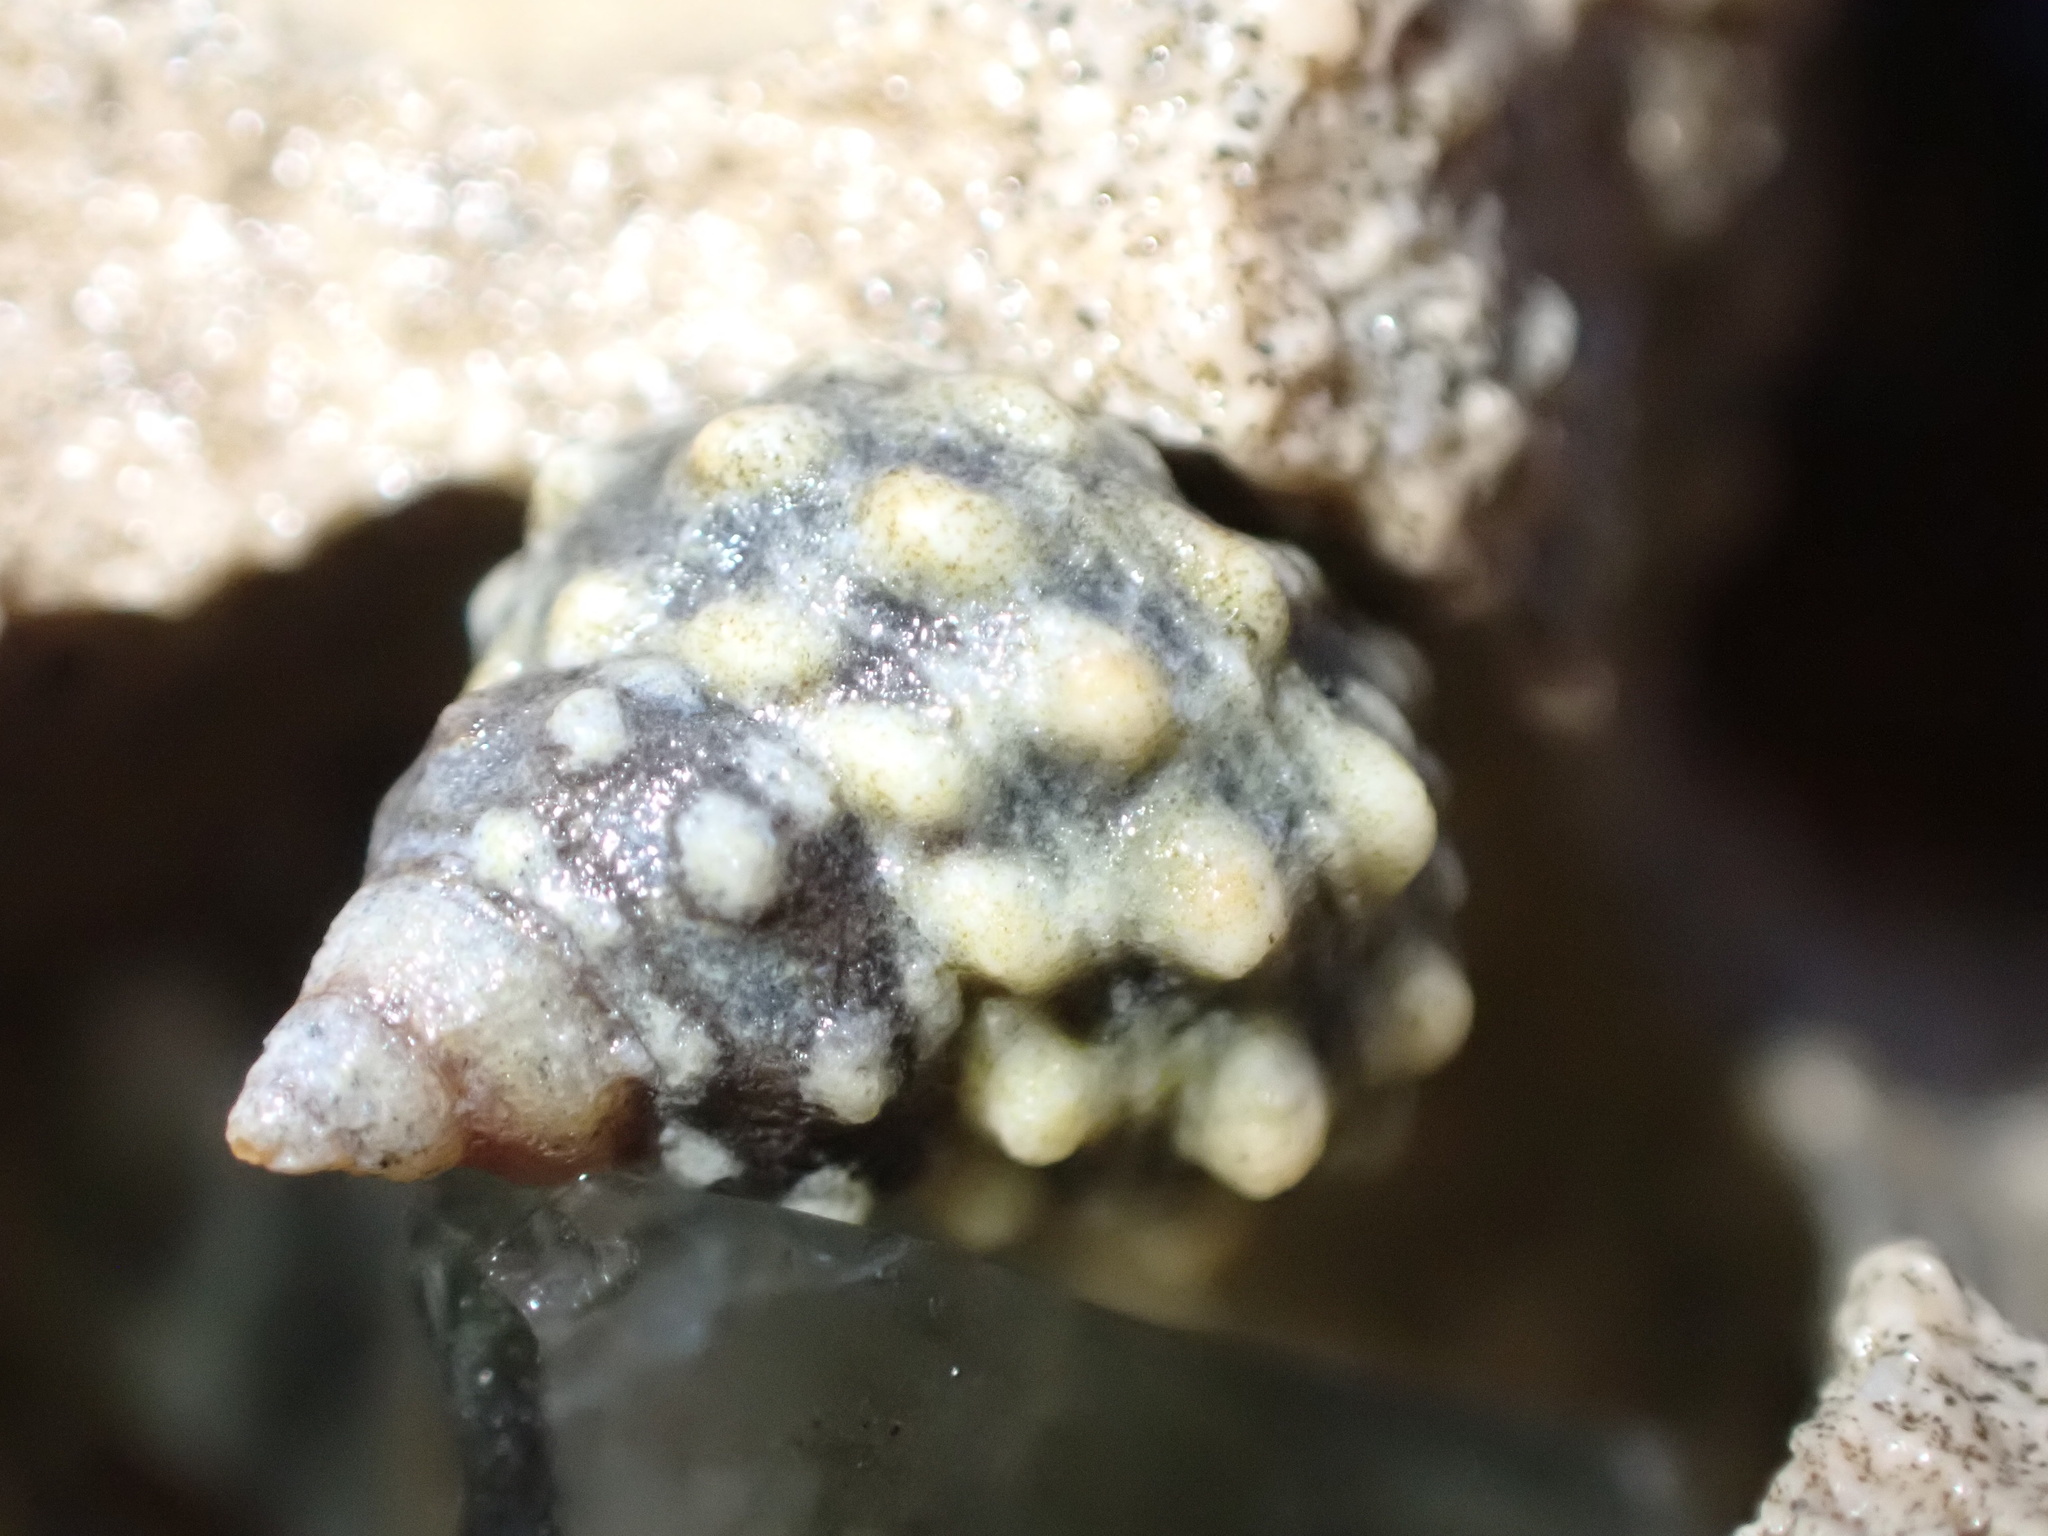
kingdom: Animalia
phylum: Mollusca
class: Gastropoda
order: Littorinimorpha
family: Littorinidae
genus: Echinolittorina
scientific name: Echinolittorina tuberculata
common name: Common periwinkle
